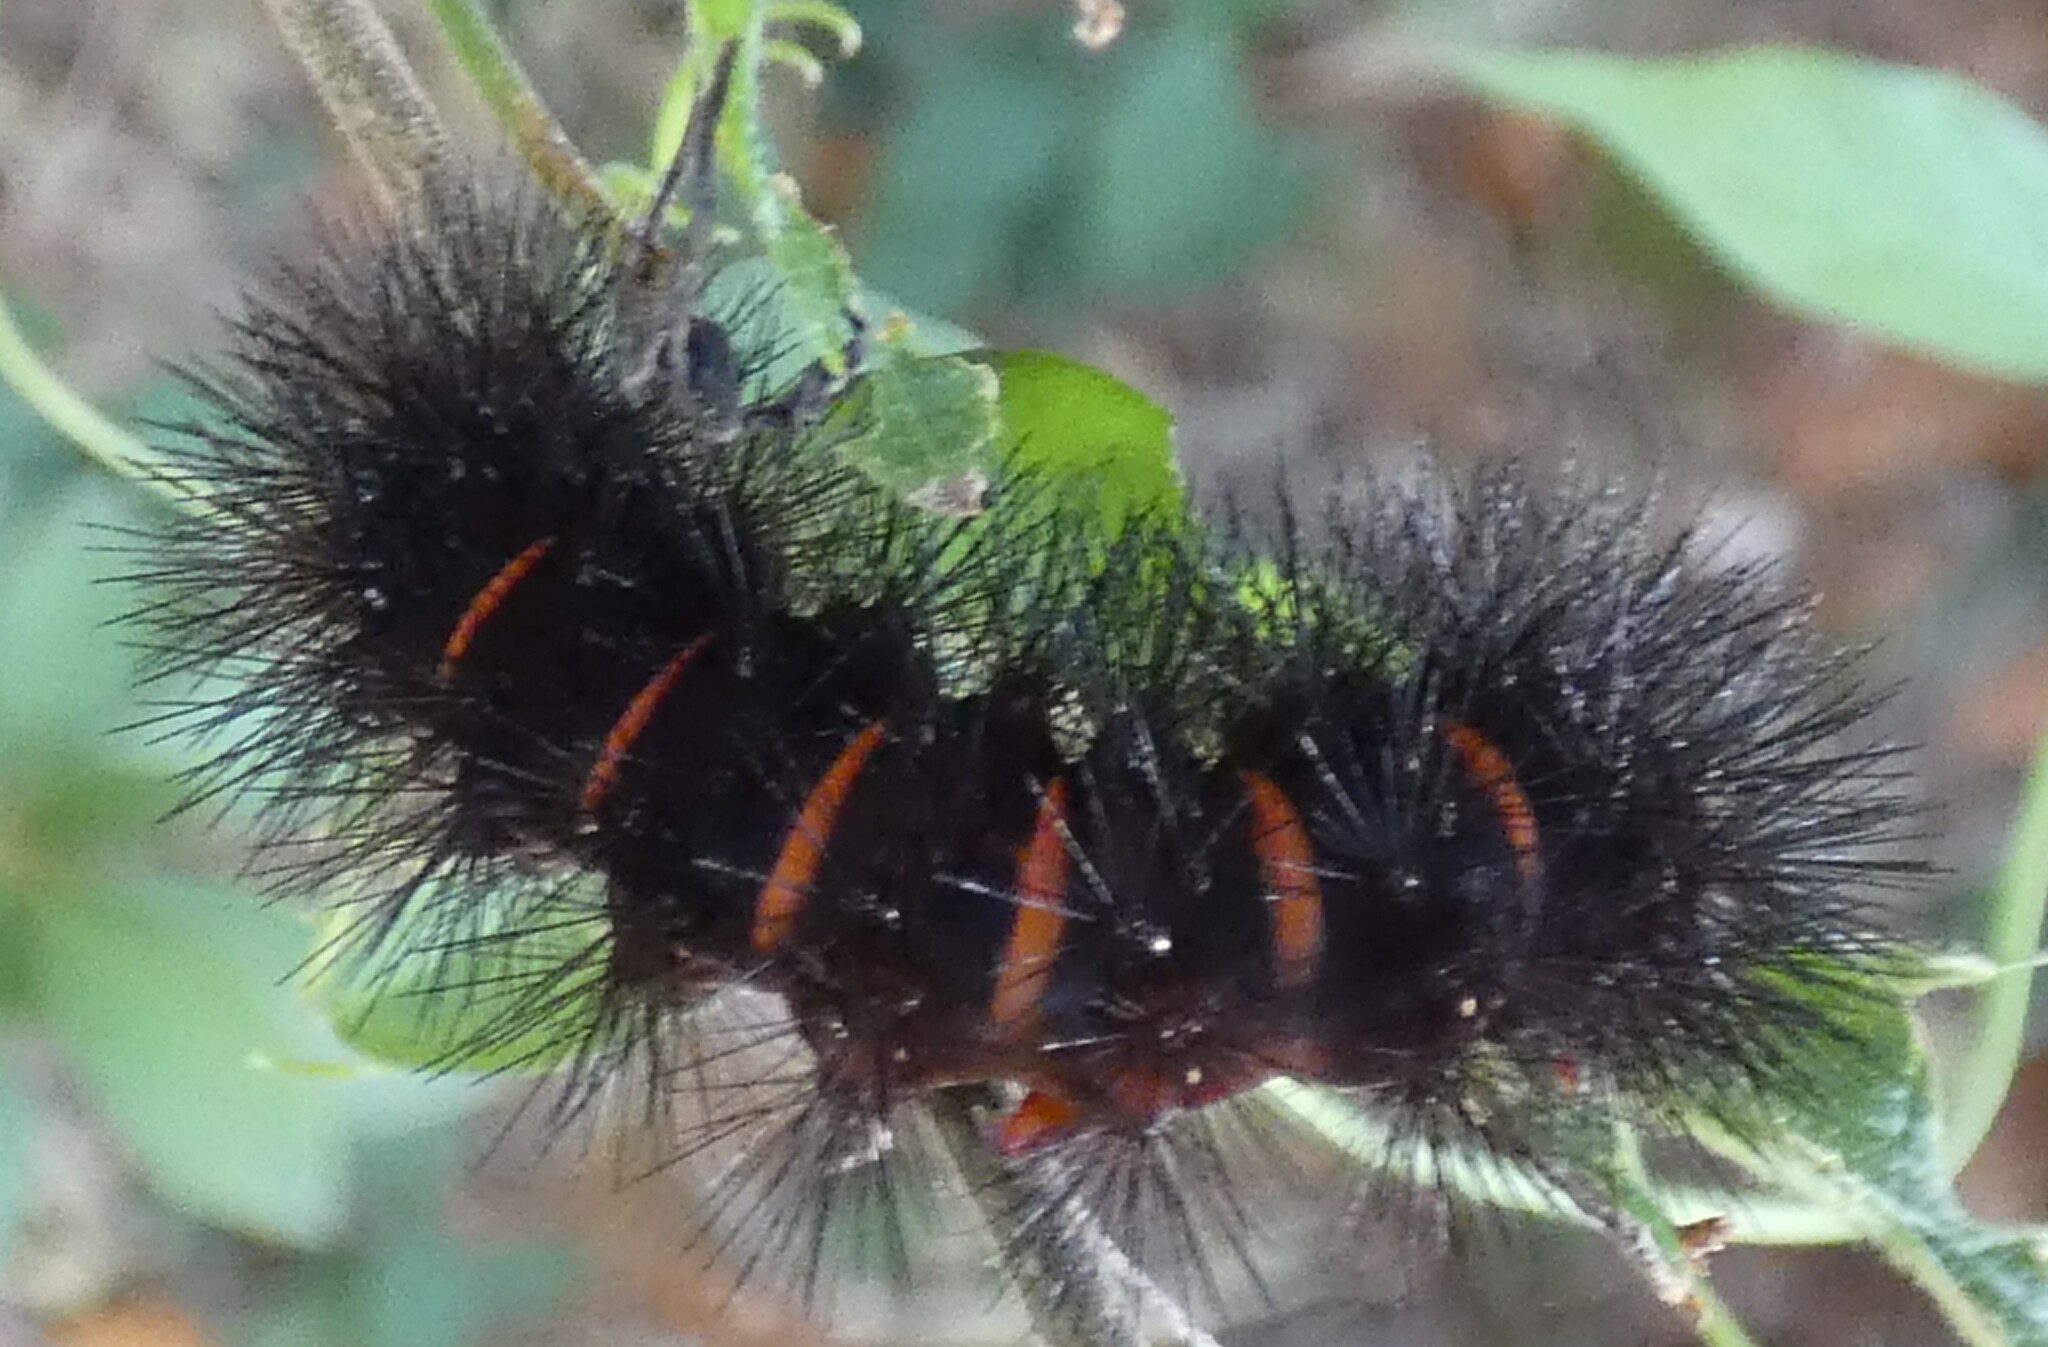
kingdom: Animalia
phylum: Arthropoda
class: Insecta
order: Lepidoptera
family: Erebidae
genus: Hypercompe
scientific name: Hypercompe scribonia
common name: Giant leopard moth
